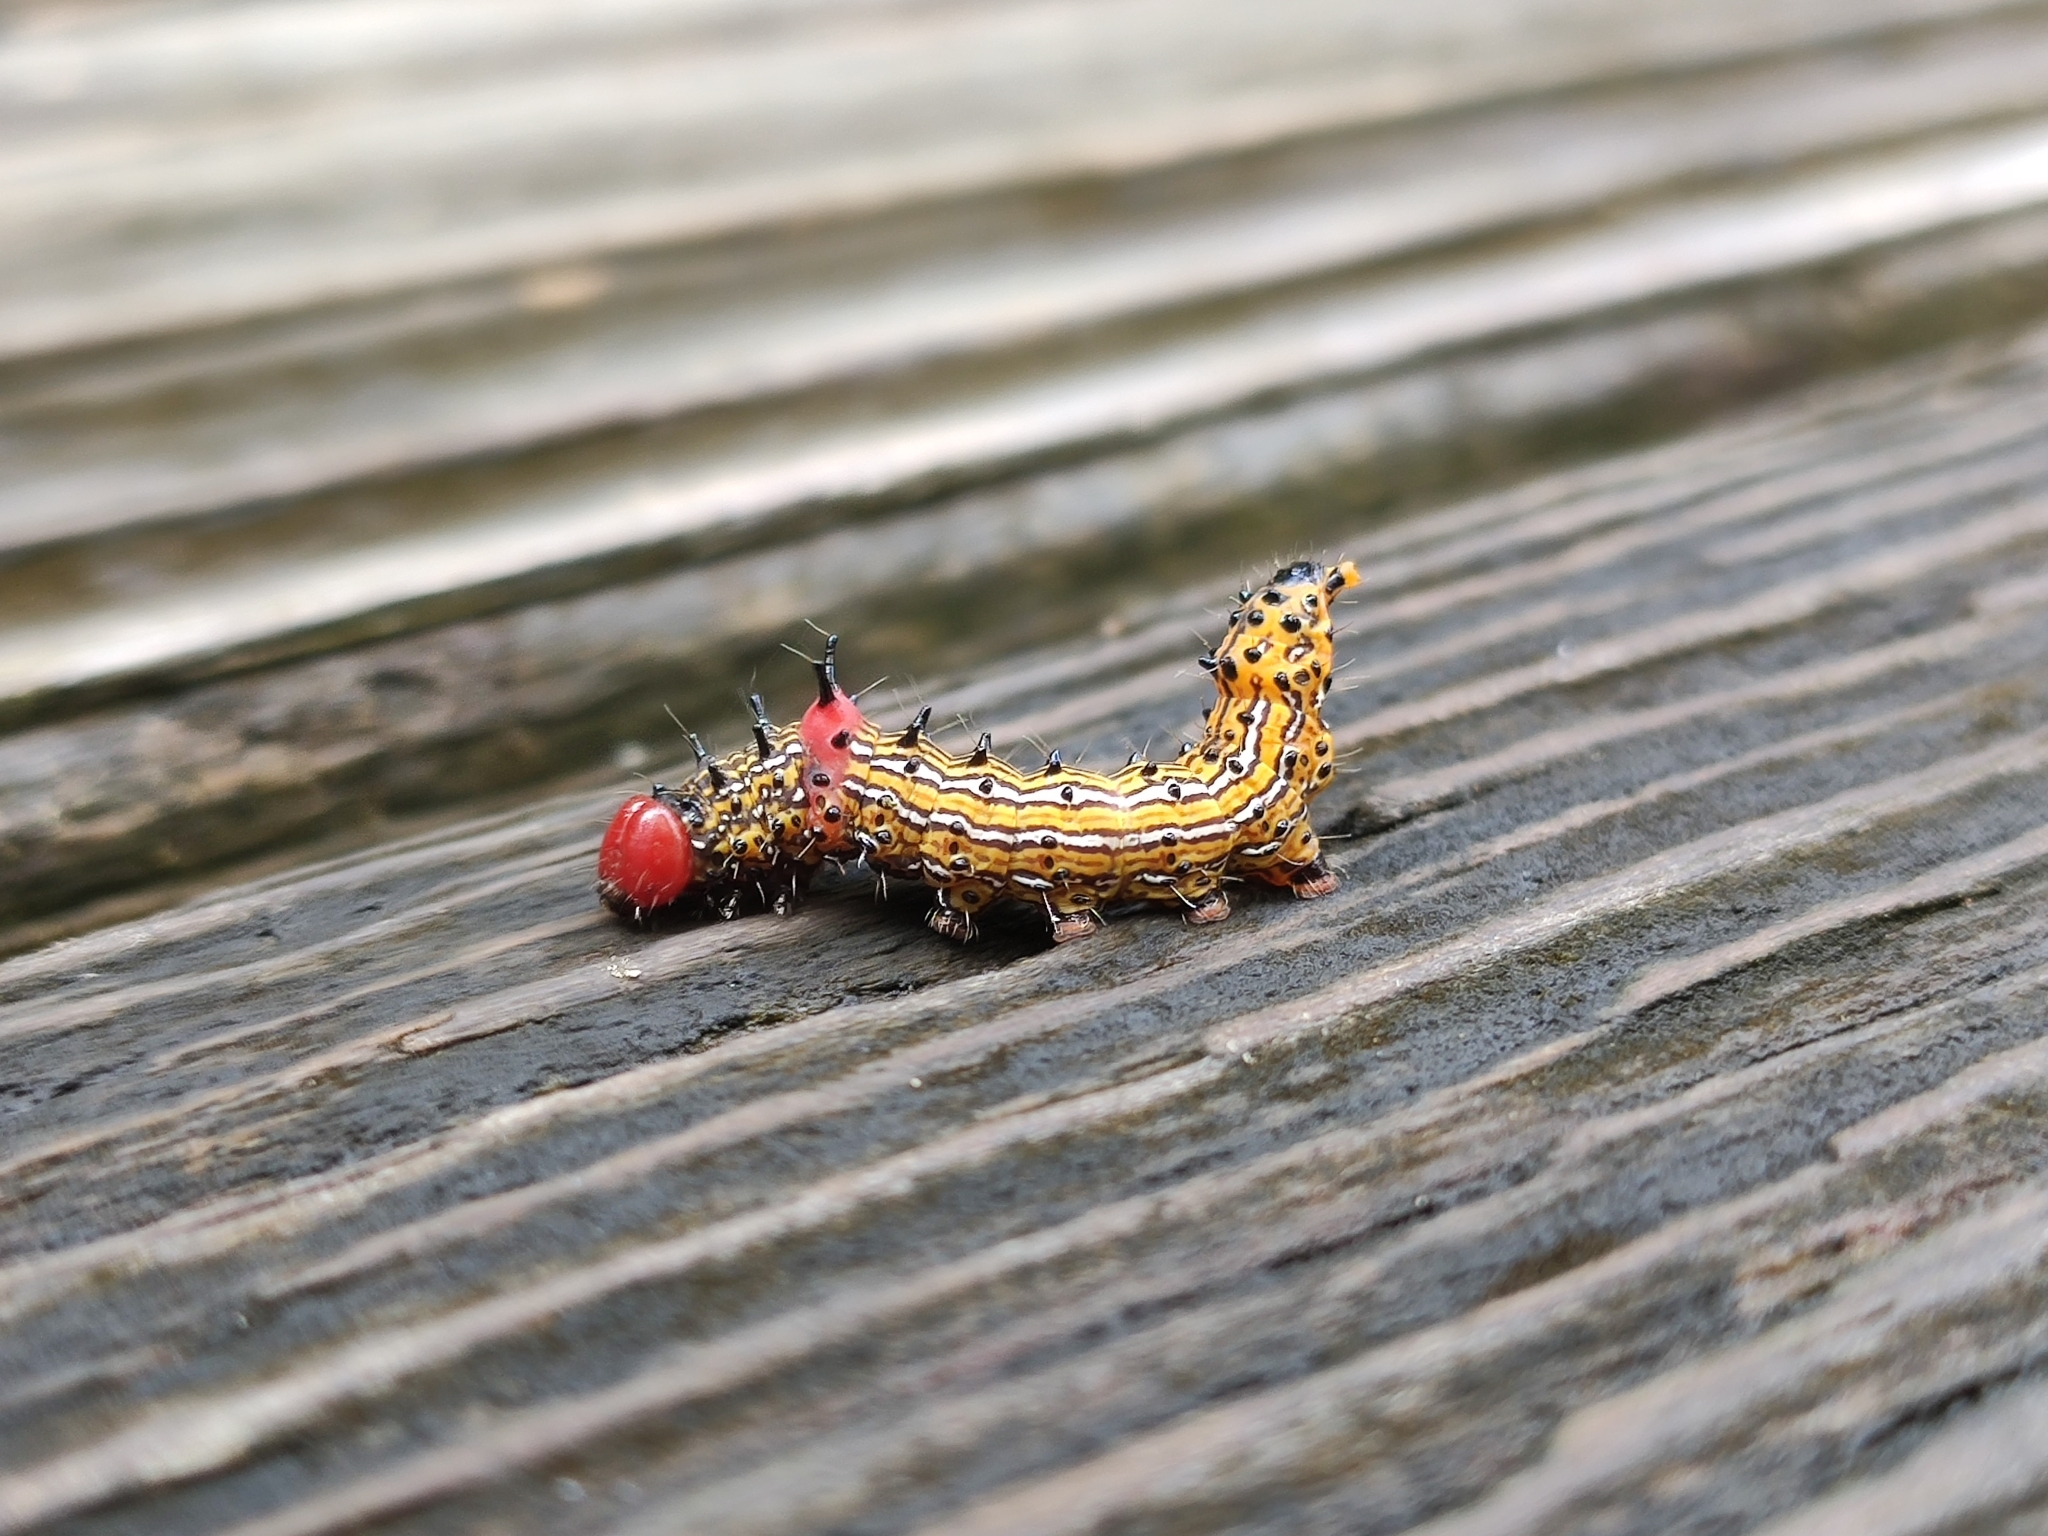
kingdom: Animalia
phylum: Arthropoda
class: Insecta
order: Lepidoptera
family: Notodontidae
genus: Schizura
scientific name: Schizura
